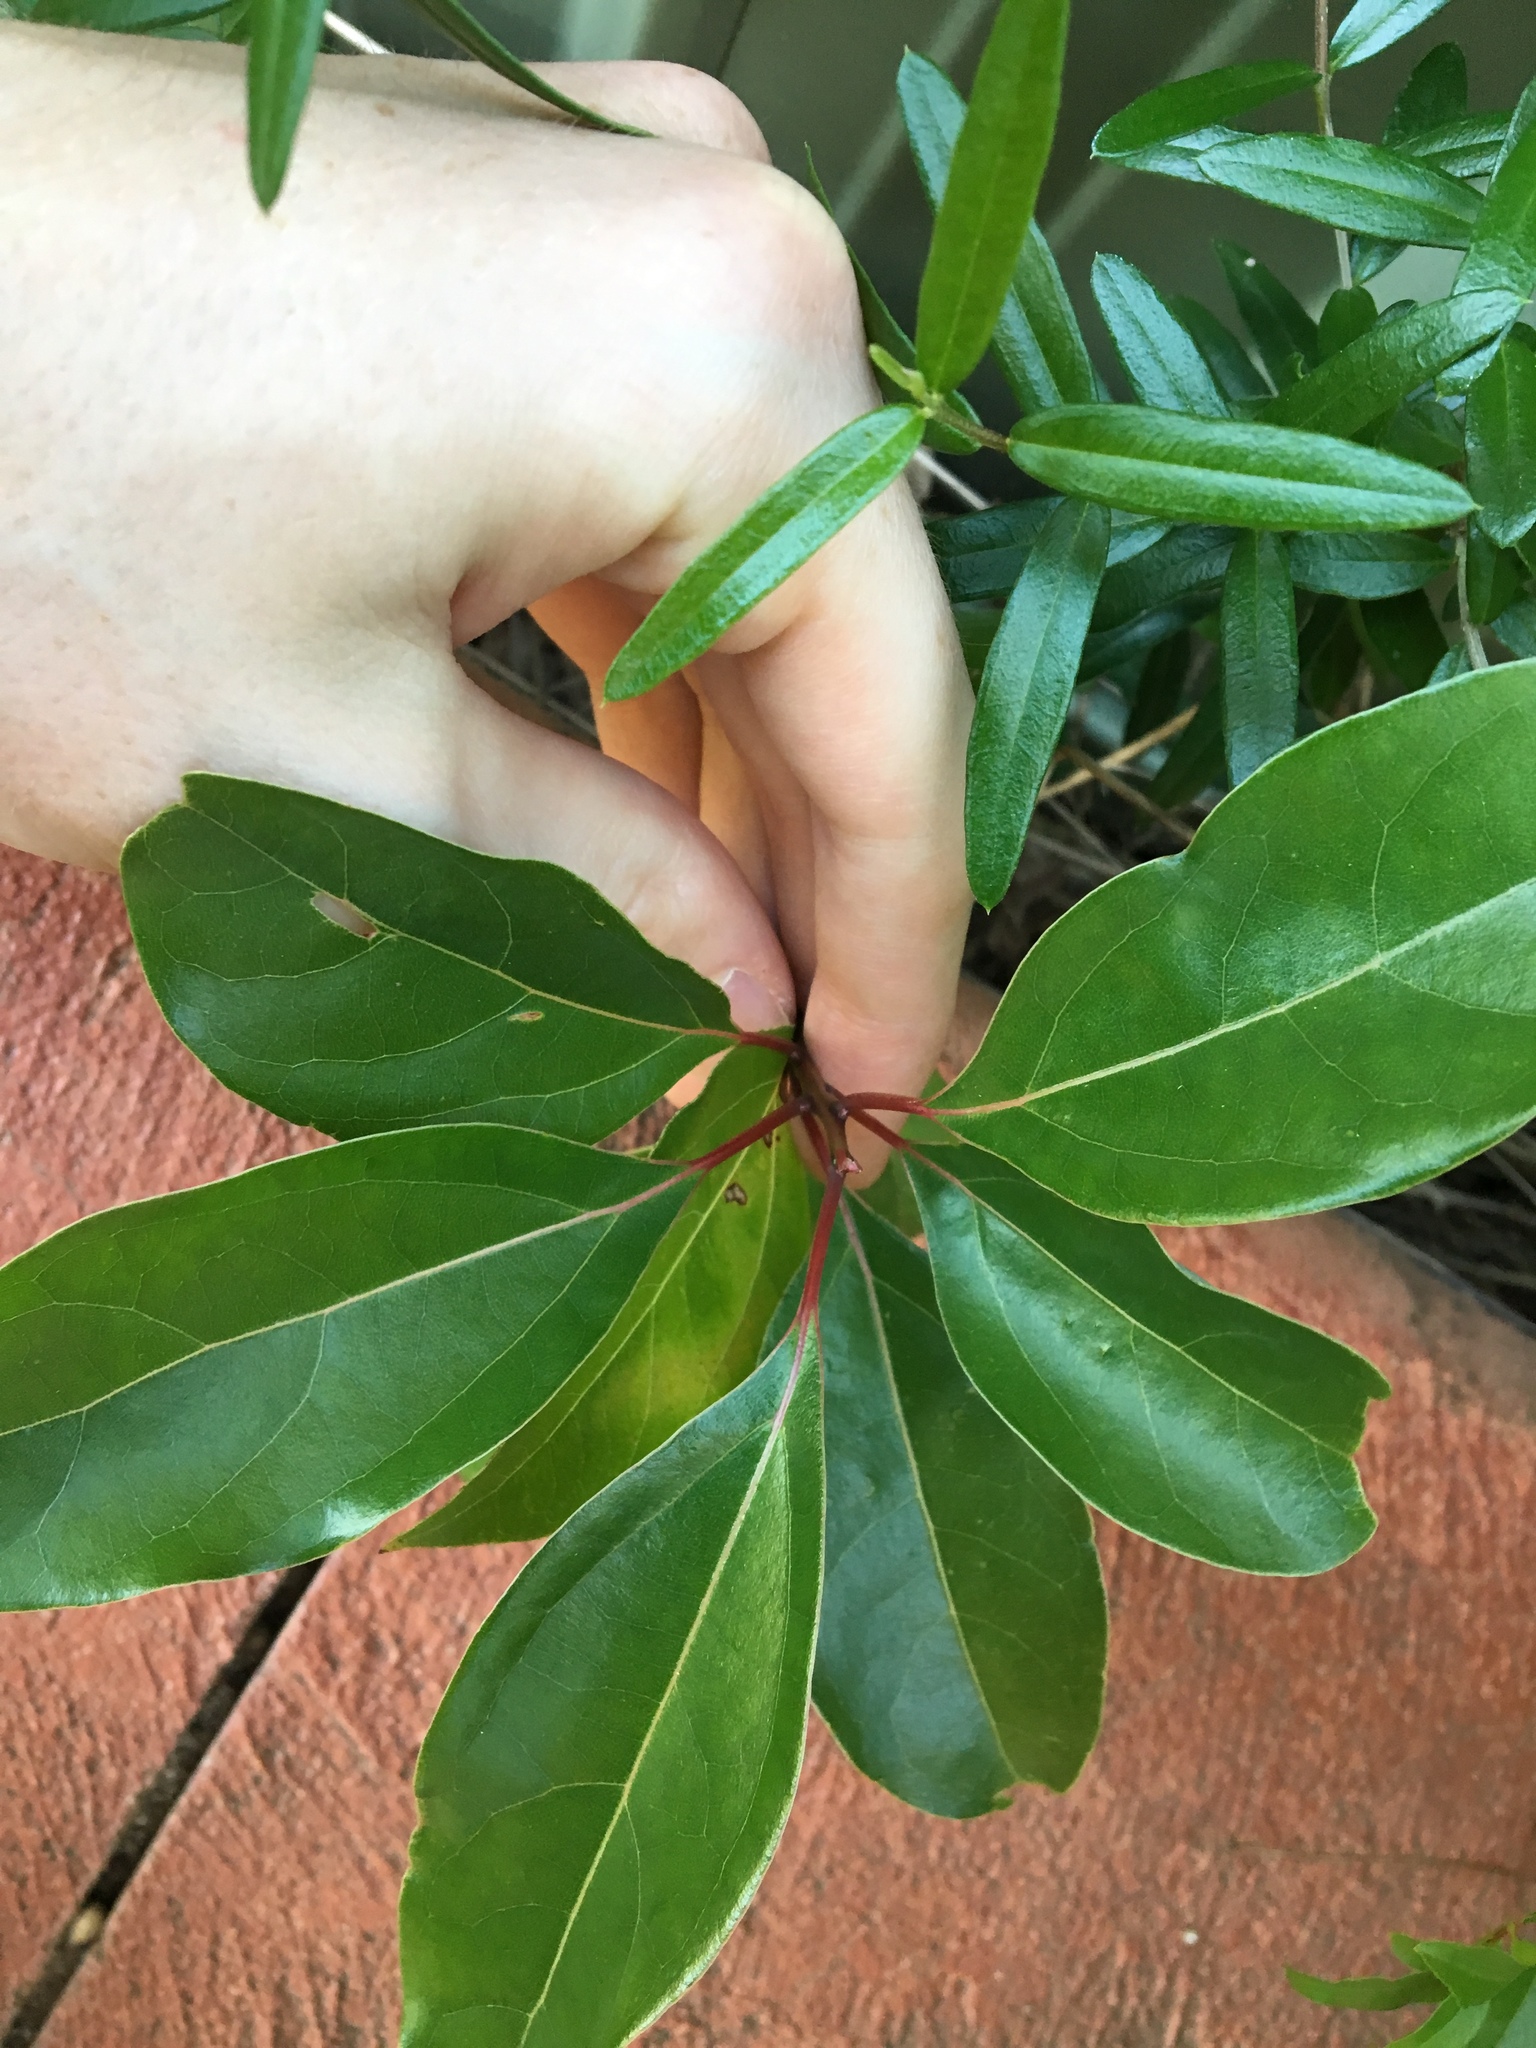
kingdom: Plantae
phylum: Tracheophyta
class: Magnoliopsida
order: Laurales
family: Lauraceae
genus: Cinnamomum
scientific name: Cinnamomum camphora
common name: Camphortree
